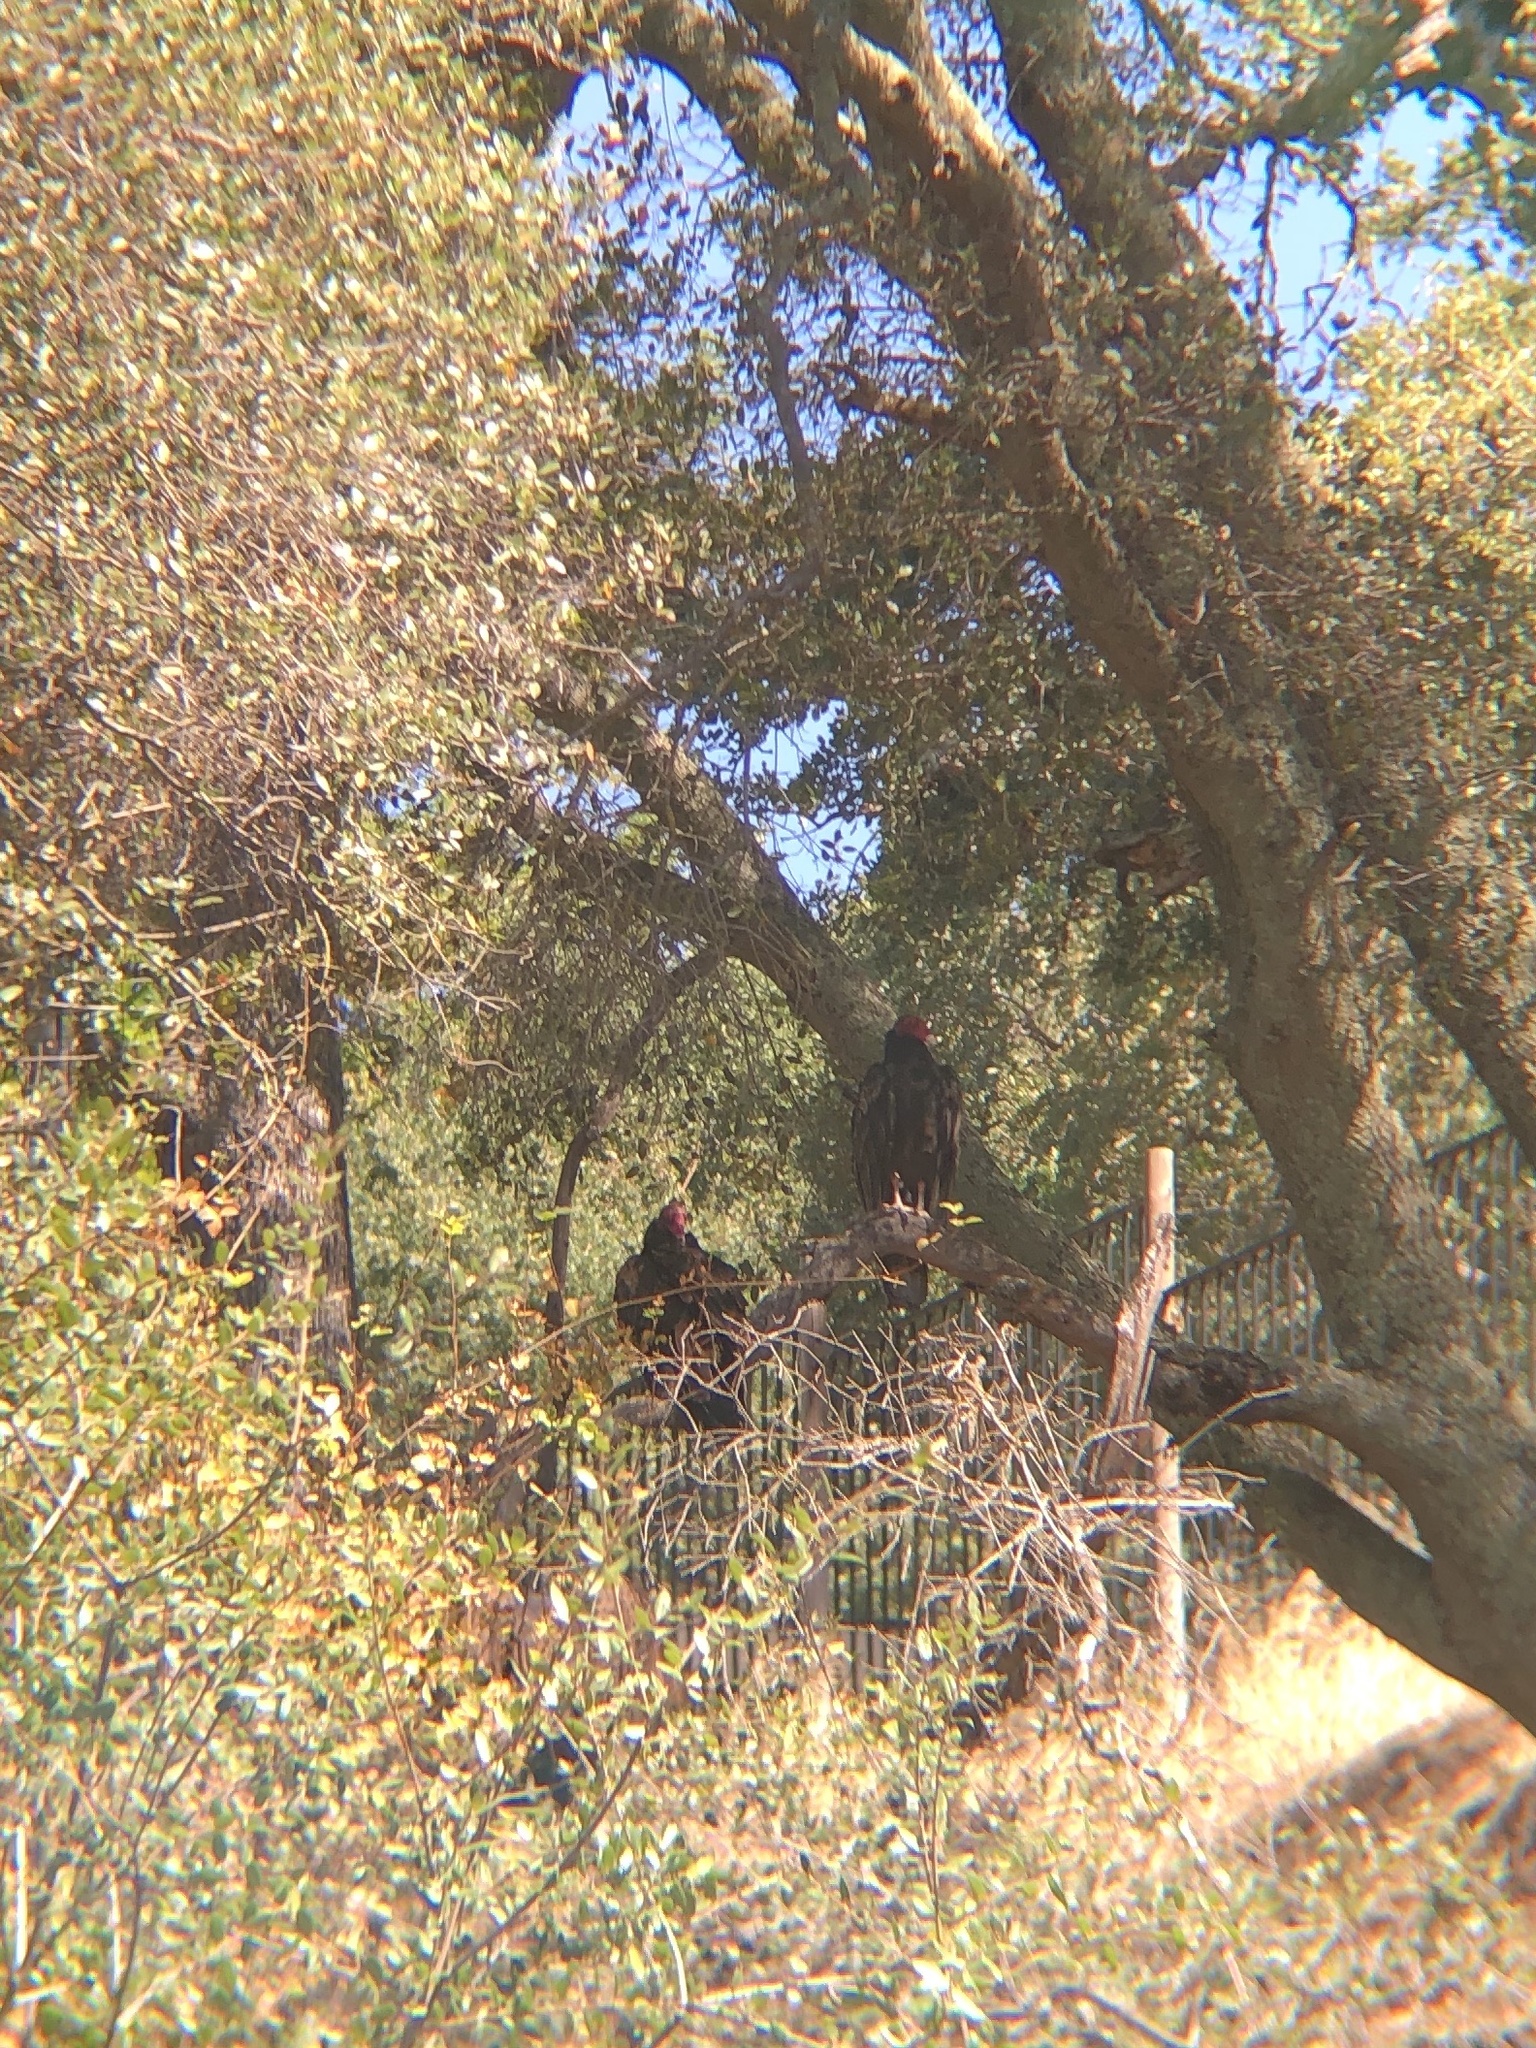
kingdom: Animalia
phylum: Chordata
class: Aves
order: Accipitriformes
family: Cathartidae
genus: Cathartes
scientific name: Cathartes aura
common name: Turkey vulture
